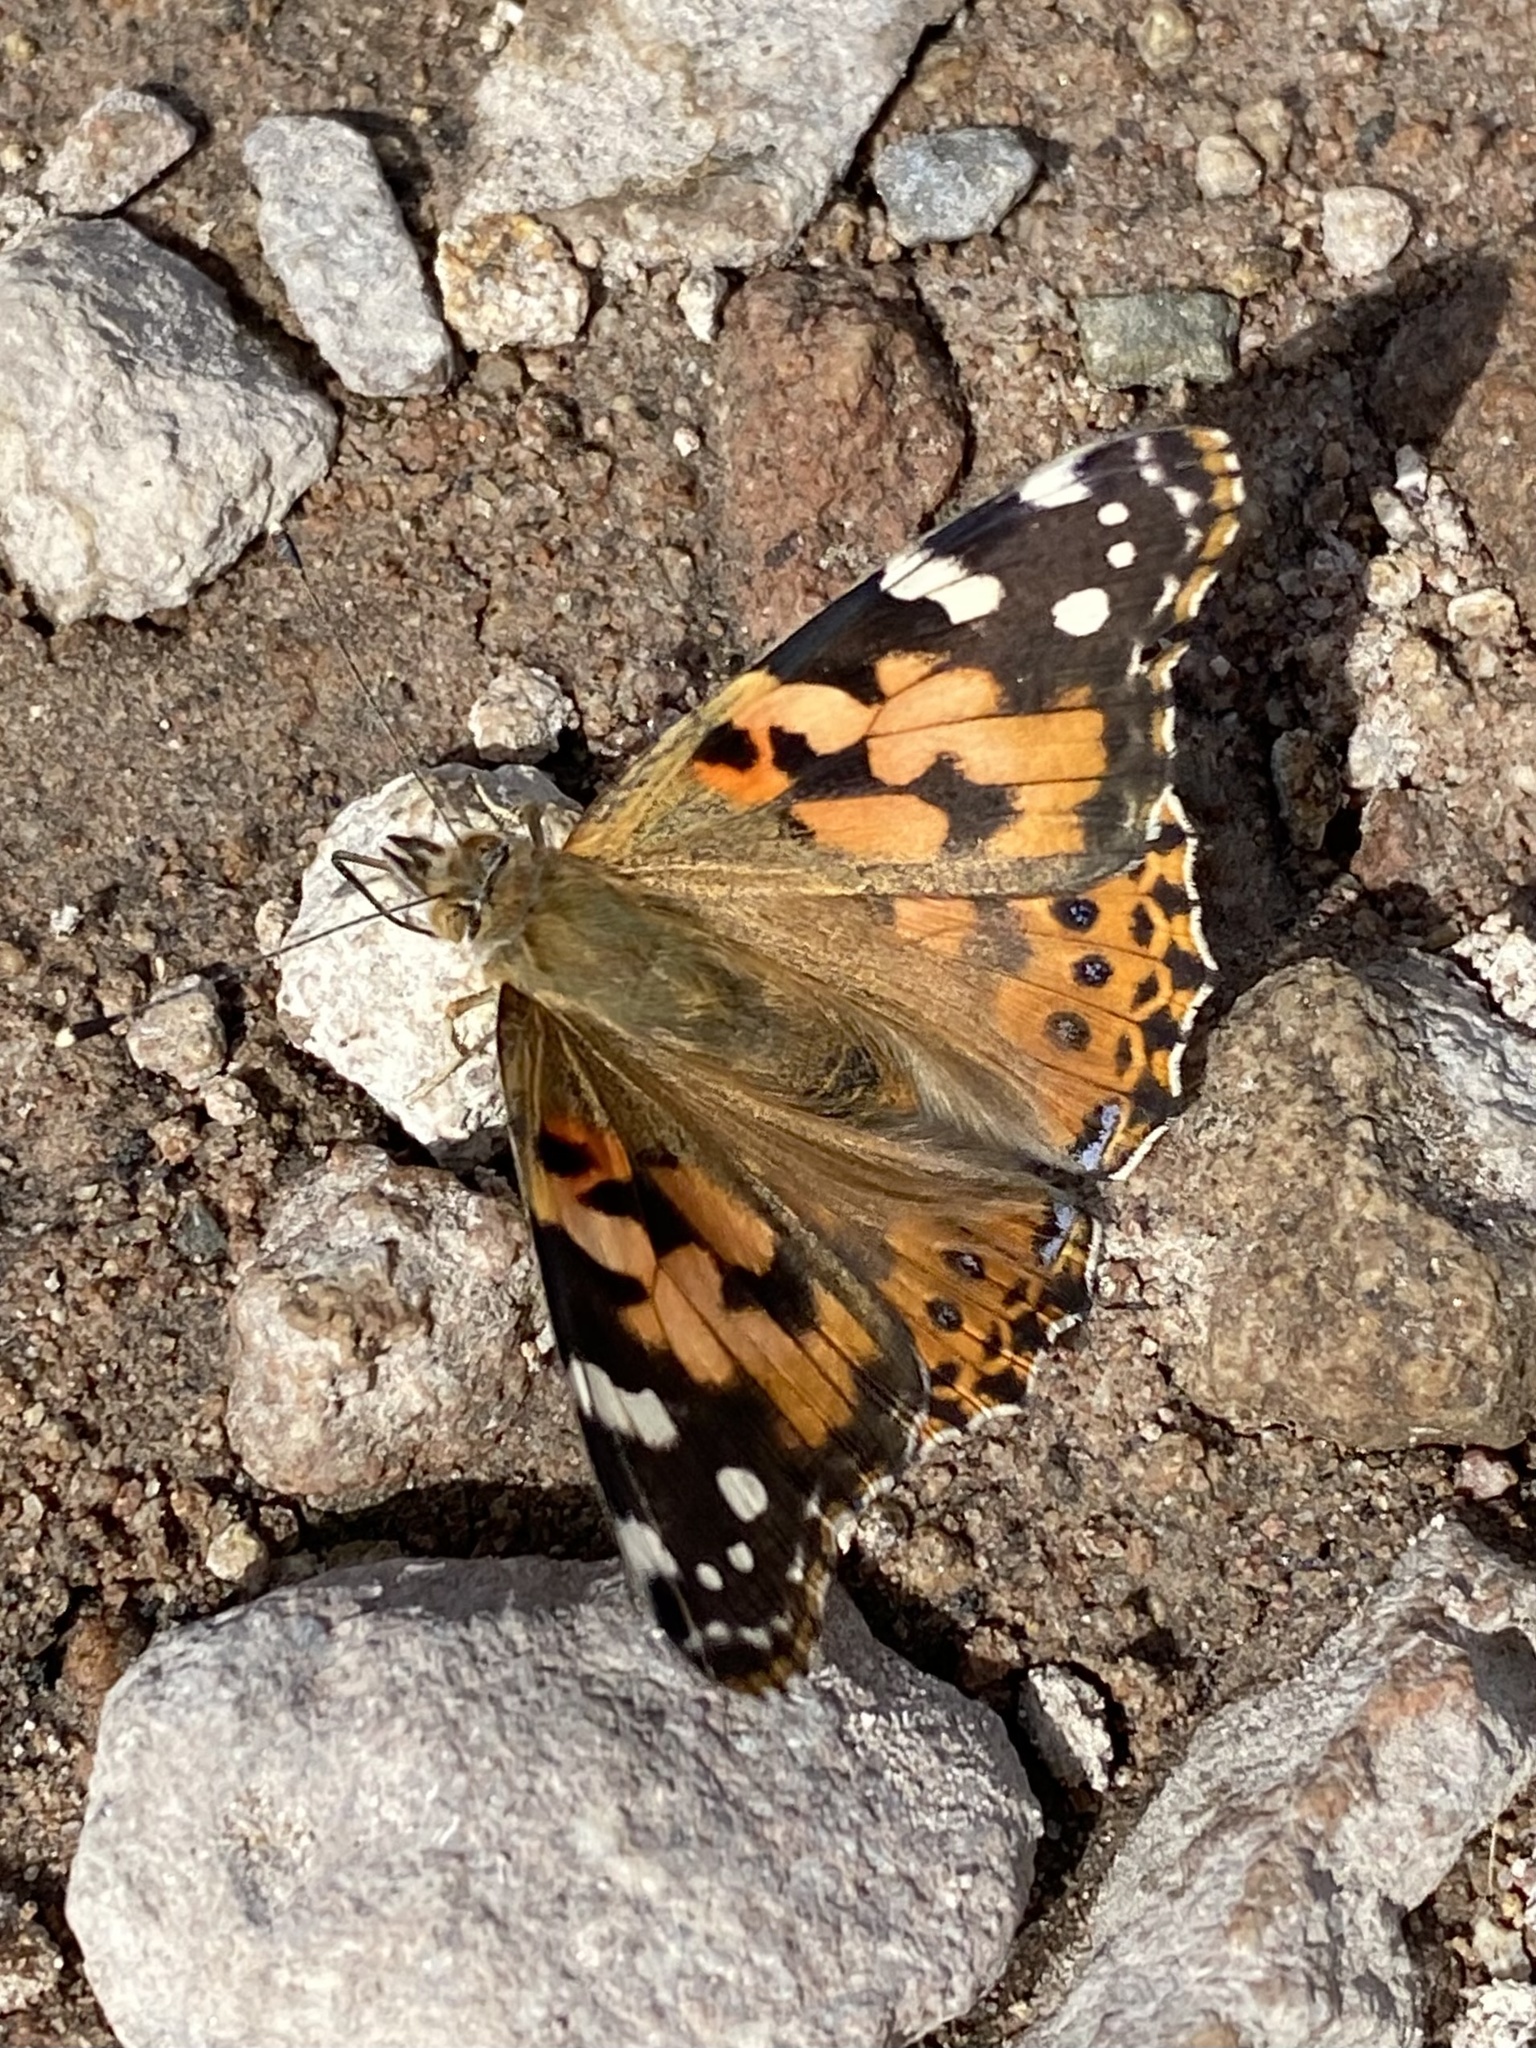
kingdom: Animalia
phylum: Arthropoda
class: Insecta
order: Lepidoptera
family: Nymphalidae
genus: Vanessa
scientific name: Vanessa cardui
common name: Painted lady
